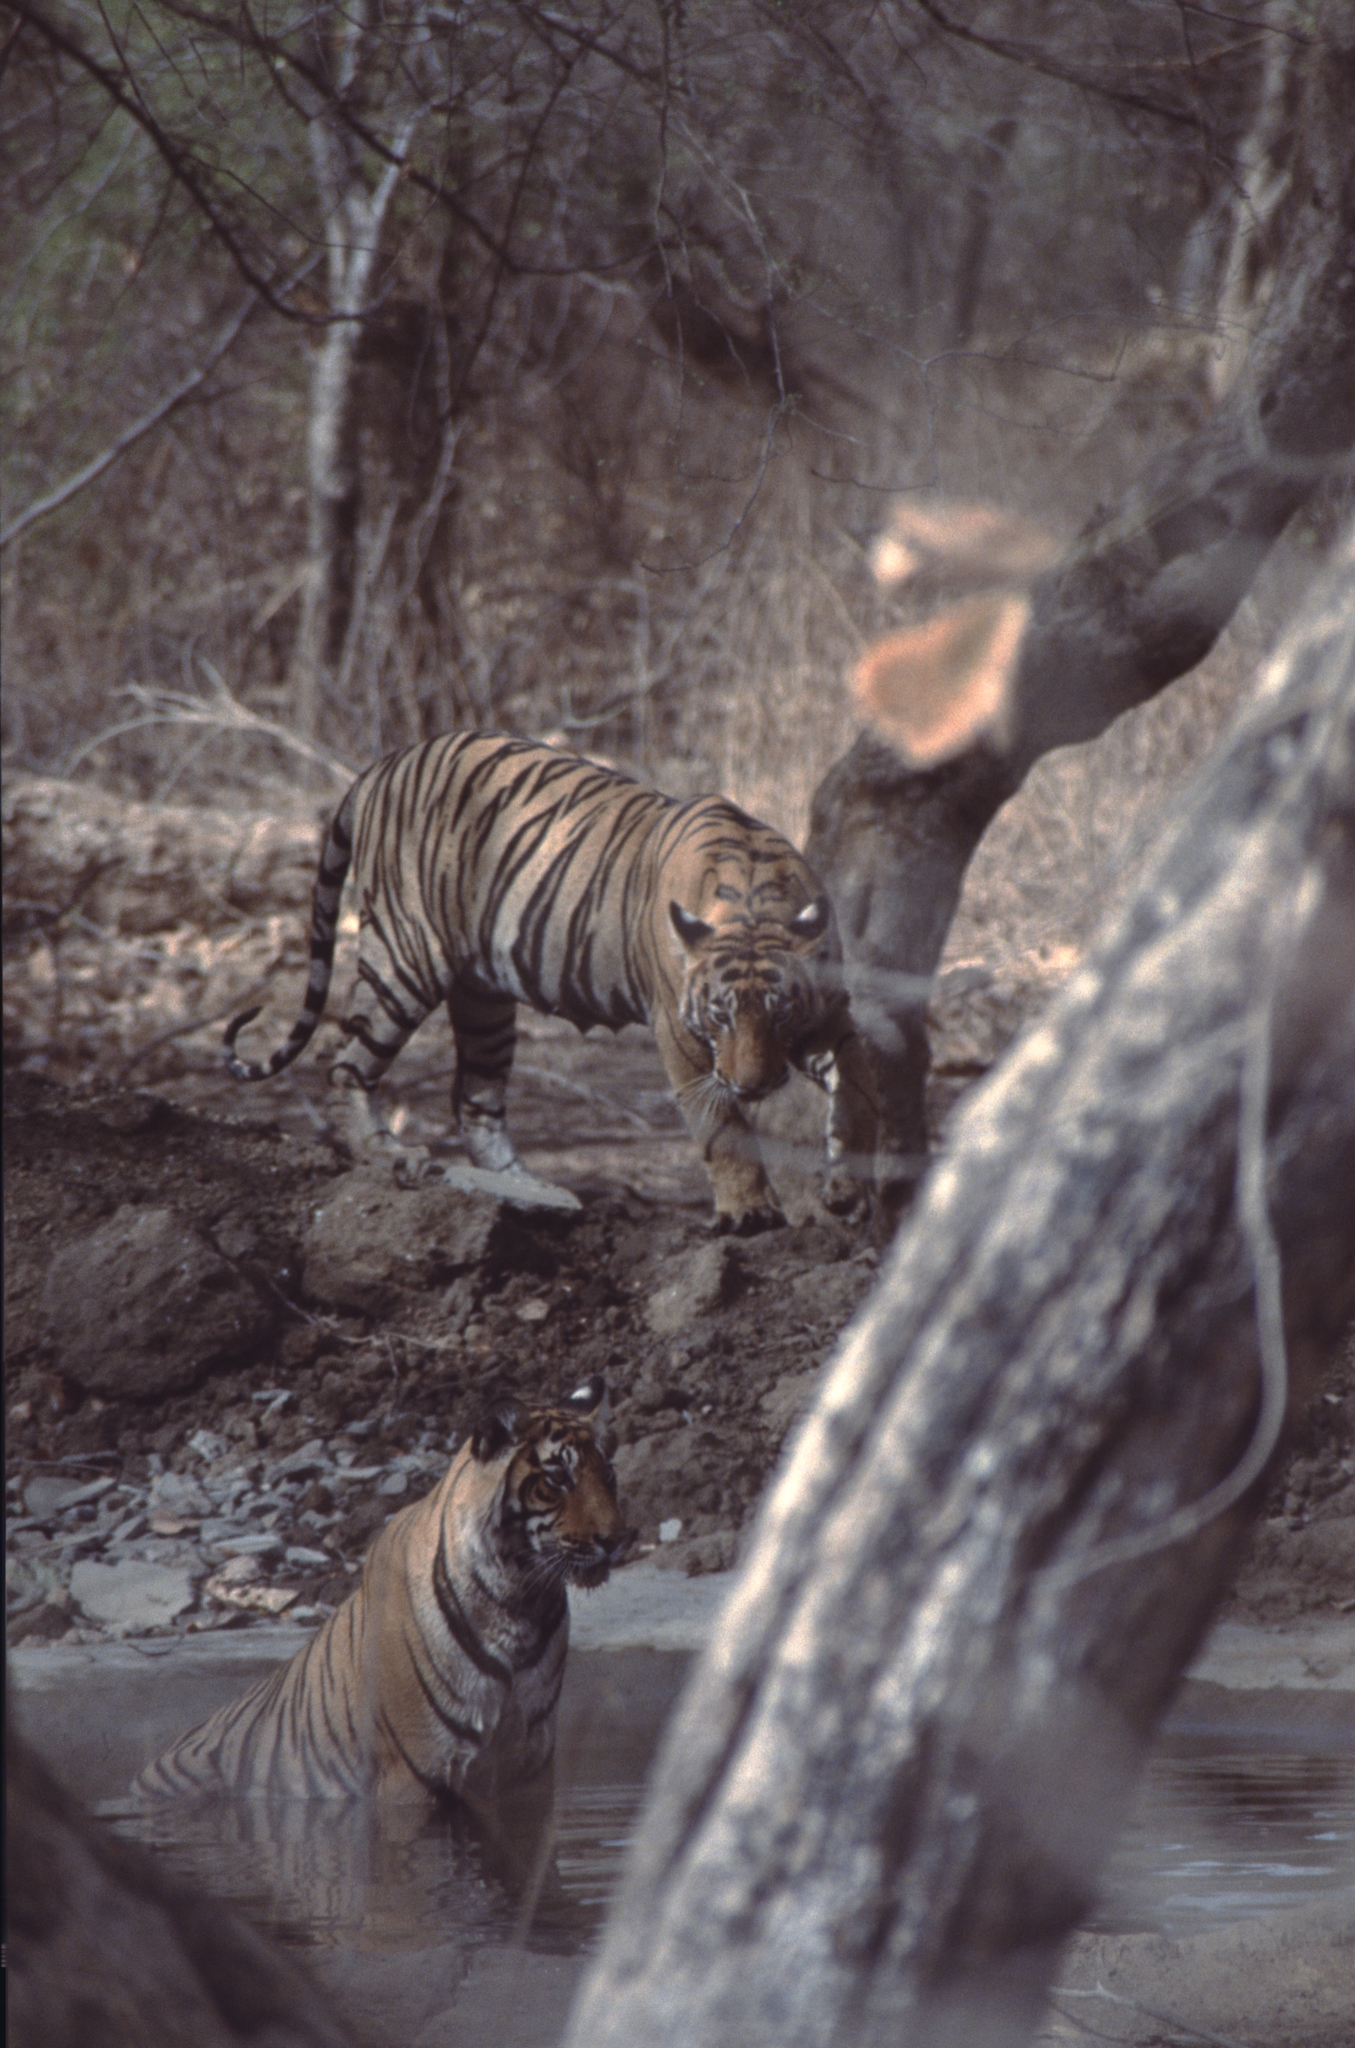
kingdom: Animalia
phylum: Chordata
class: Mammalia
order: Carnivora
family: Felidae
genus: Panthera
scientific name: Panthera tigris
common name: Tiger
